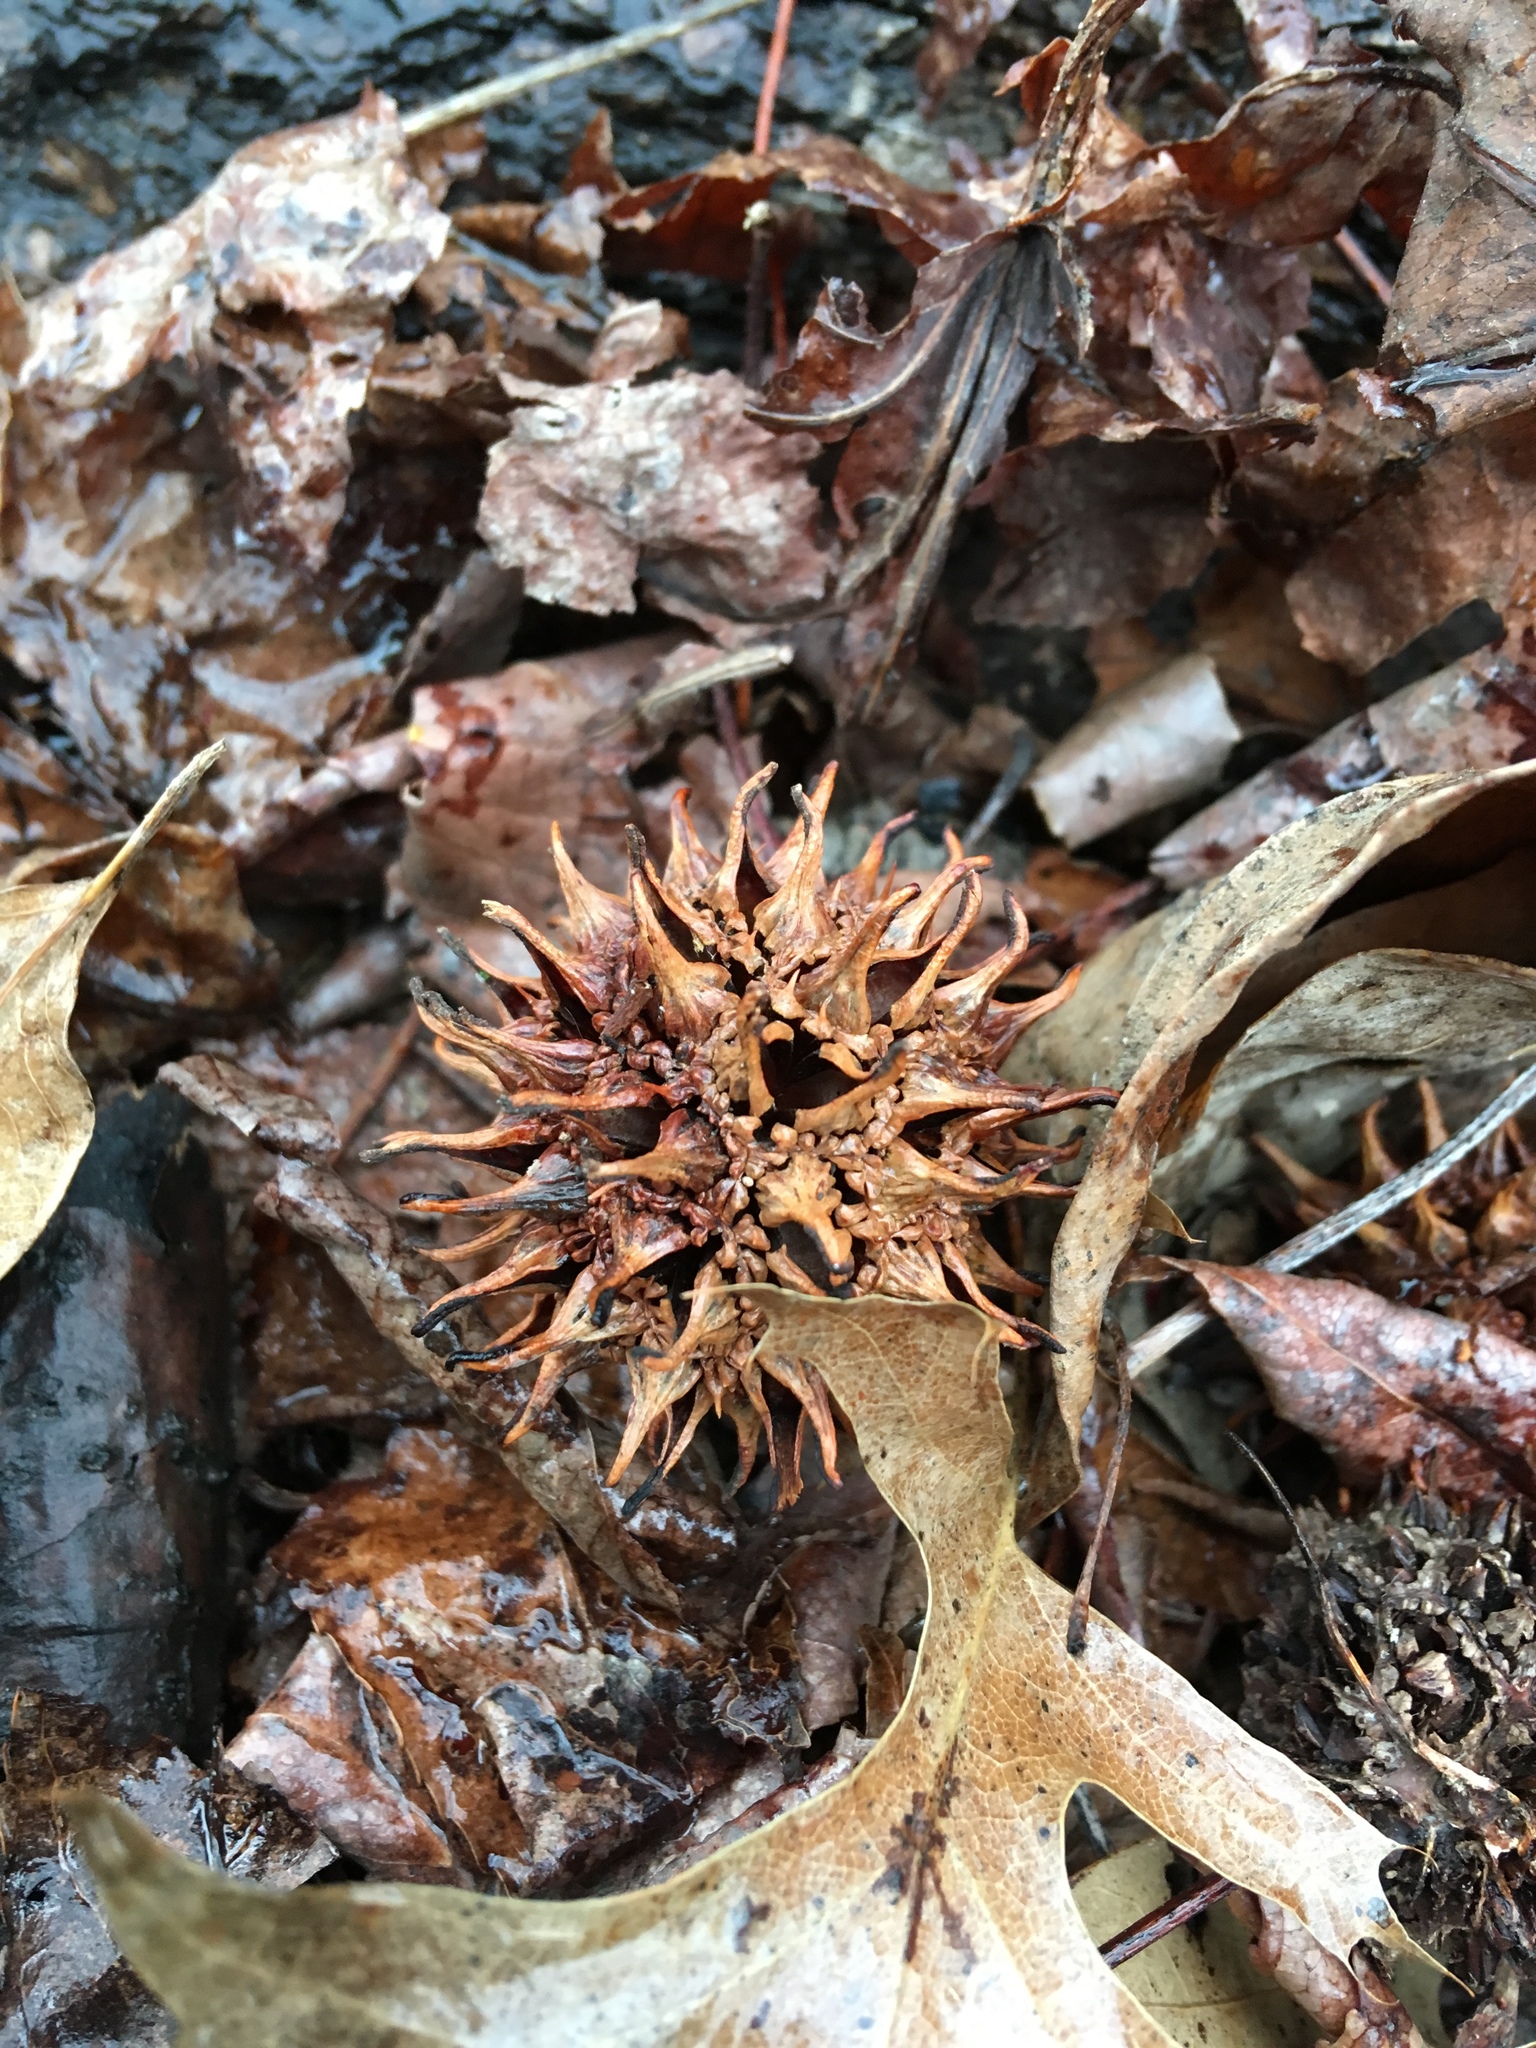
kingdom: Plantae
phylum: Tracheophyta
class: Magnoliopsida
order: Saxifragales
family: Altingiaceae
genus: Liquidambar
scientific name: Liquidambar styraciflua
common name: Sweet gum
